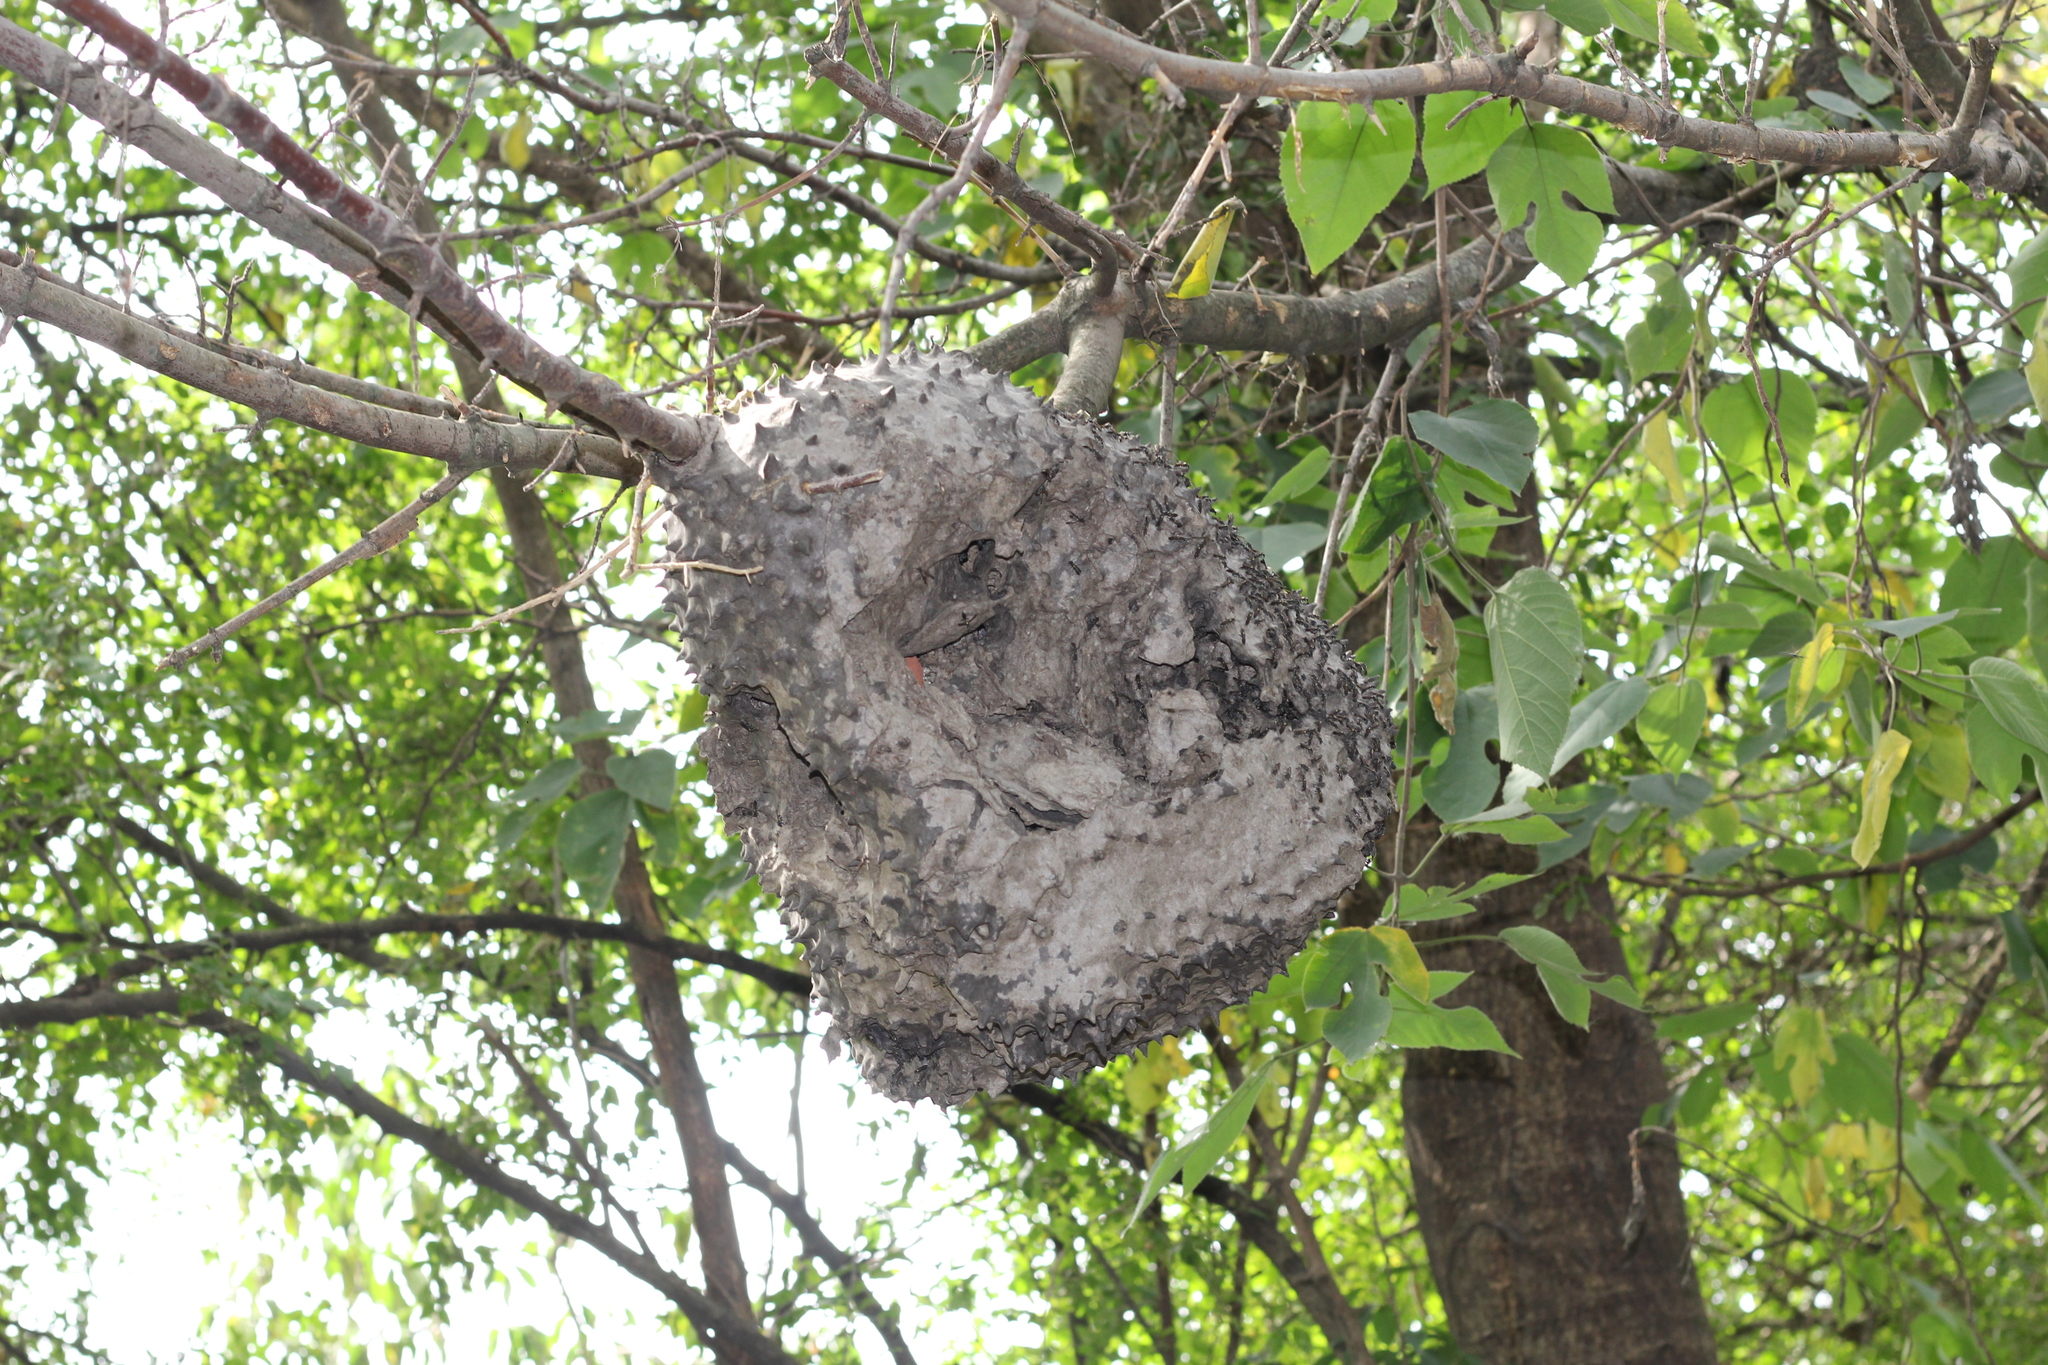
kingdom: Animalia
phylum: Arthropoda
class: Insecta
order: Hymenoptera
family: Eumenidae
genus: Polybia
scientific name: Polybia scutellaris
